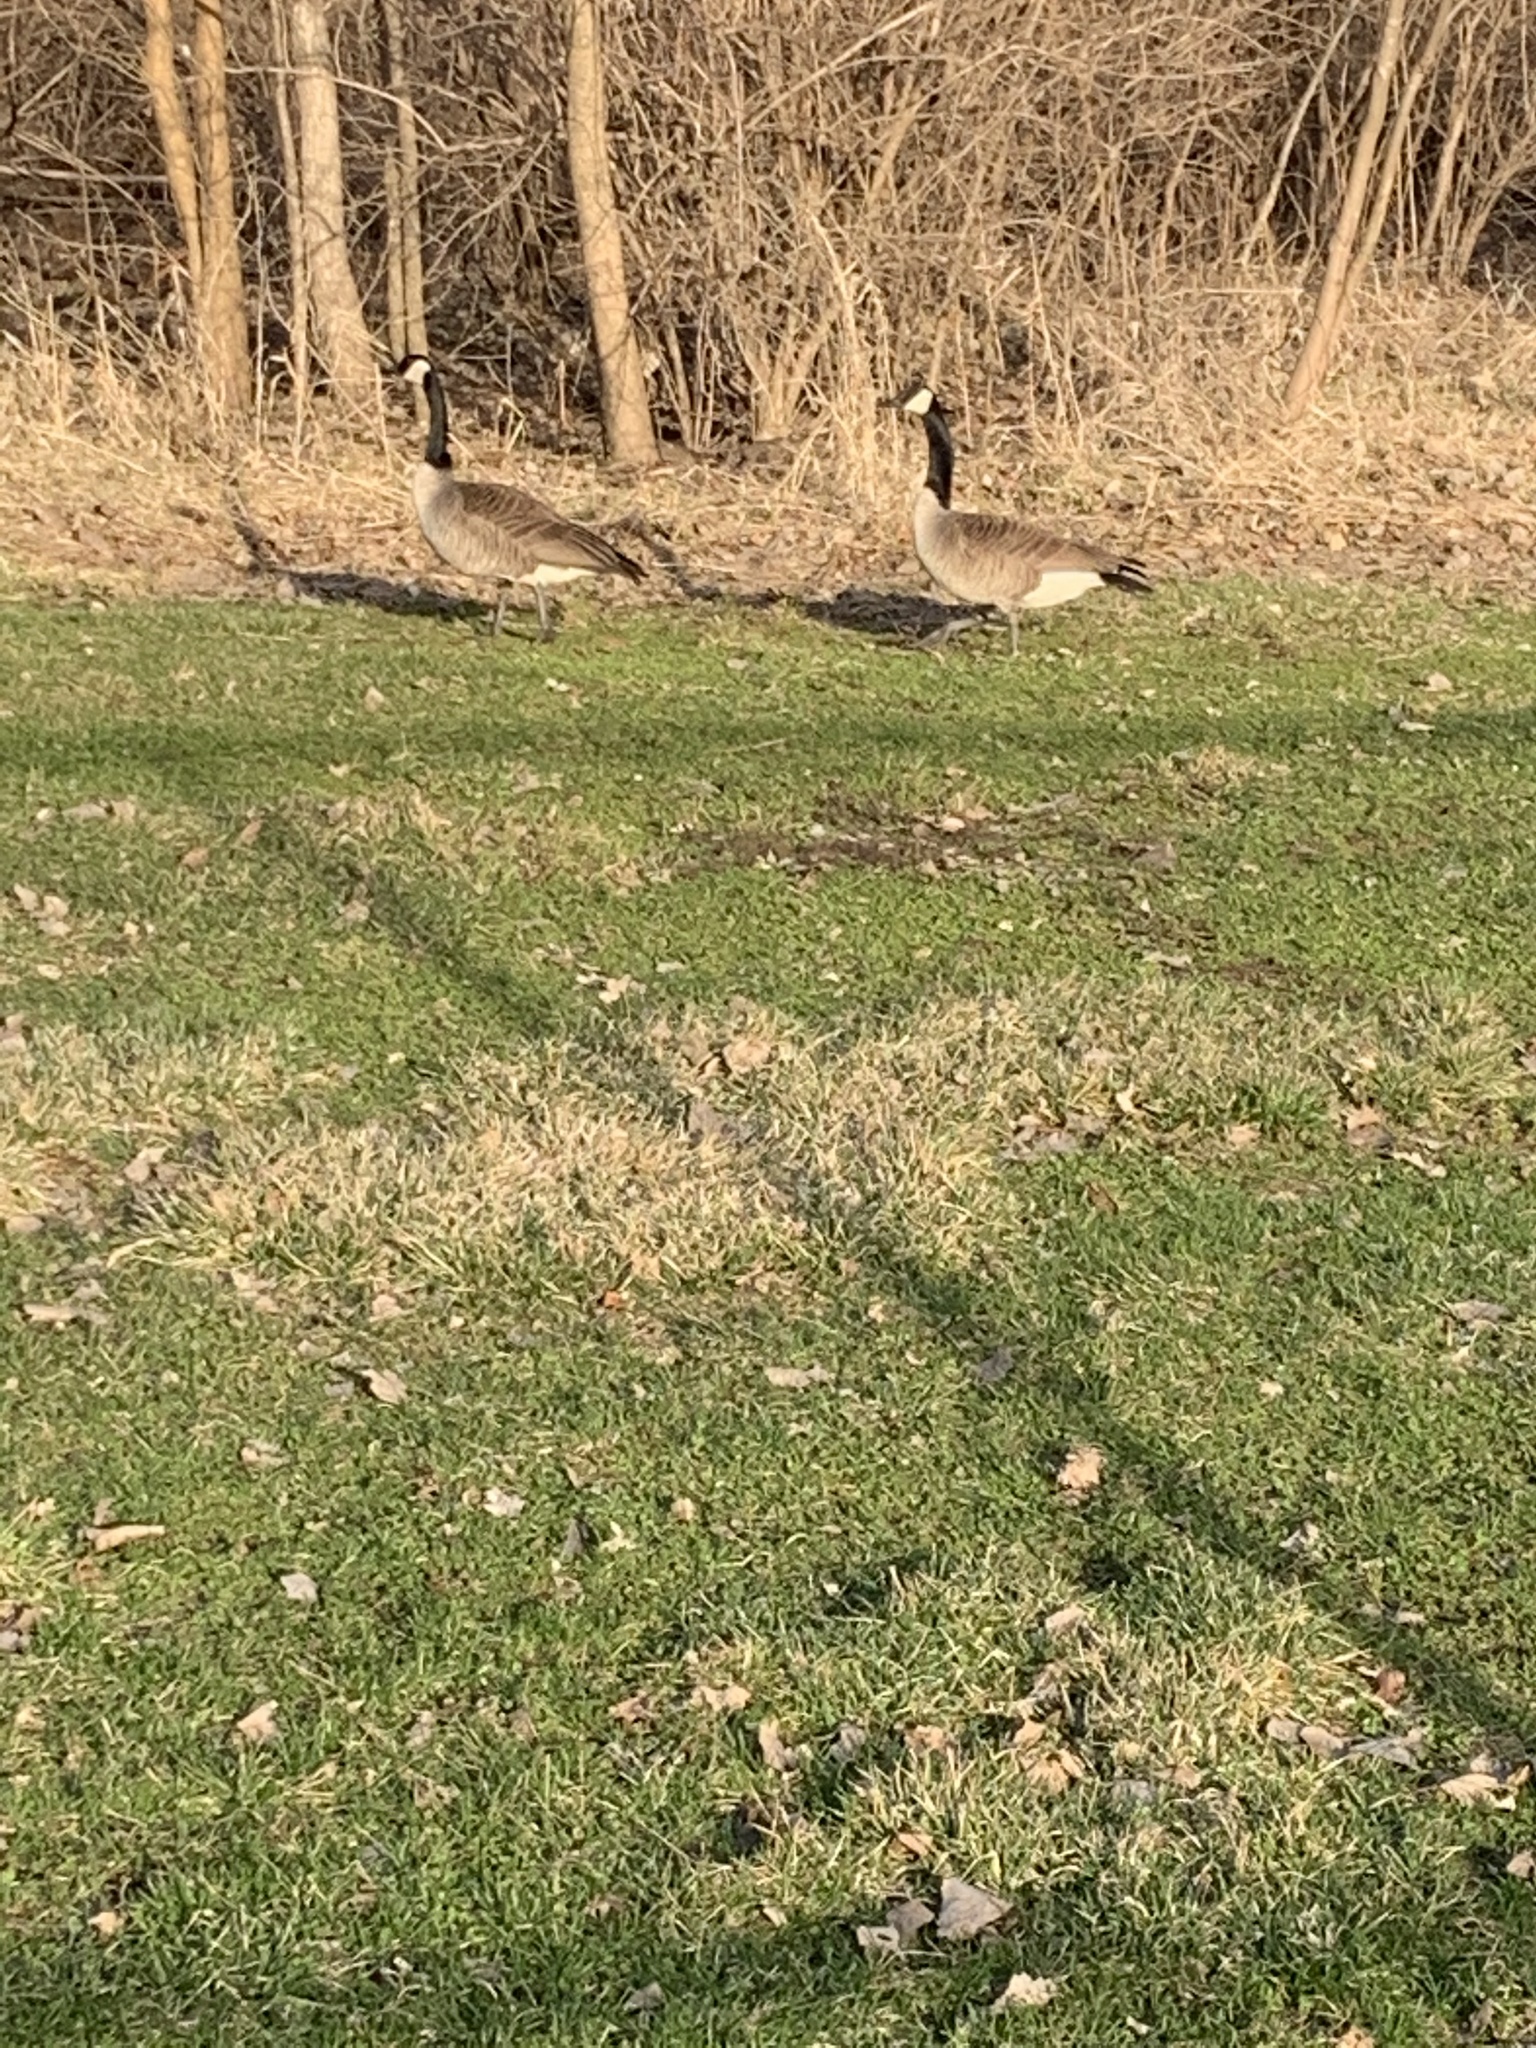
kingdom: Animalia
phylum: Chordata
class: Aves
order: Anseriformes
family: Anatidae
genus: Branta
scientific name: Branta canadensis
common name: Canada goose
